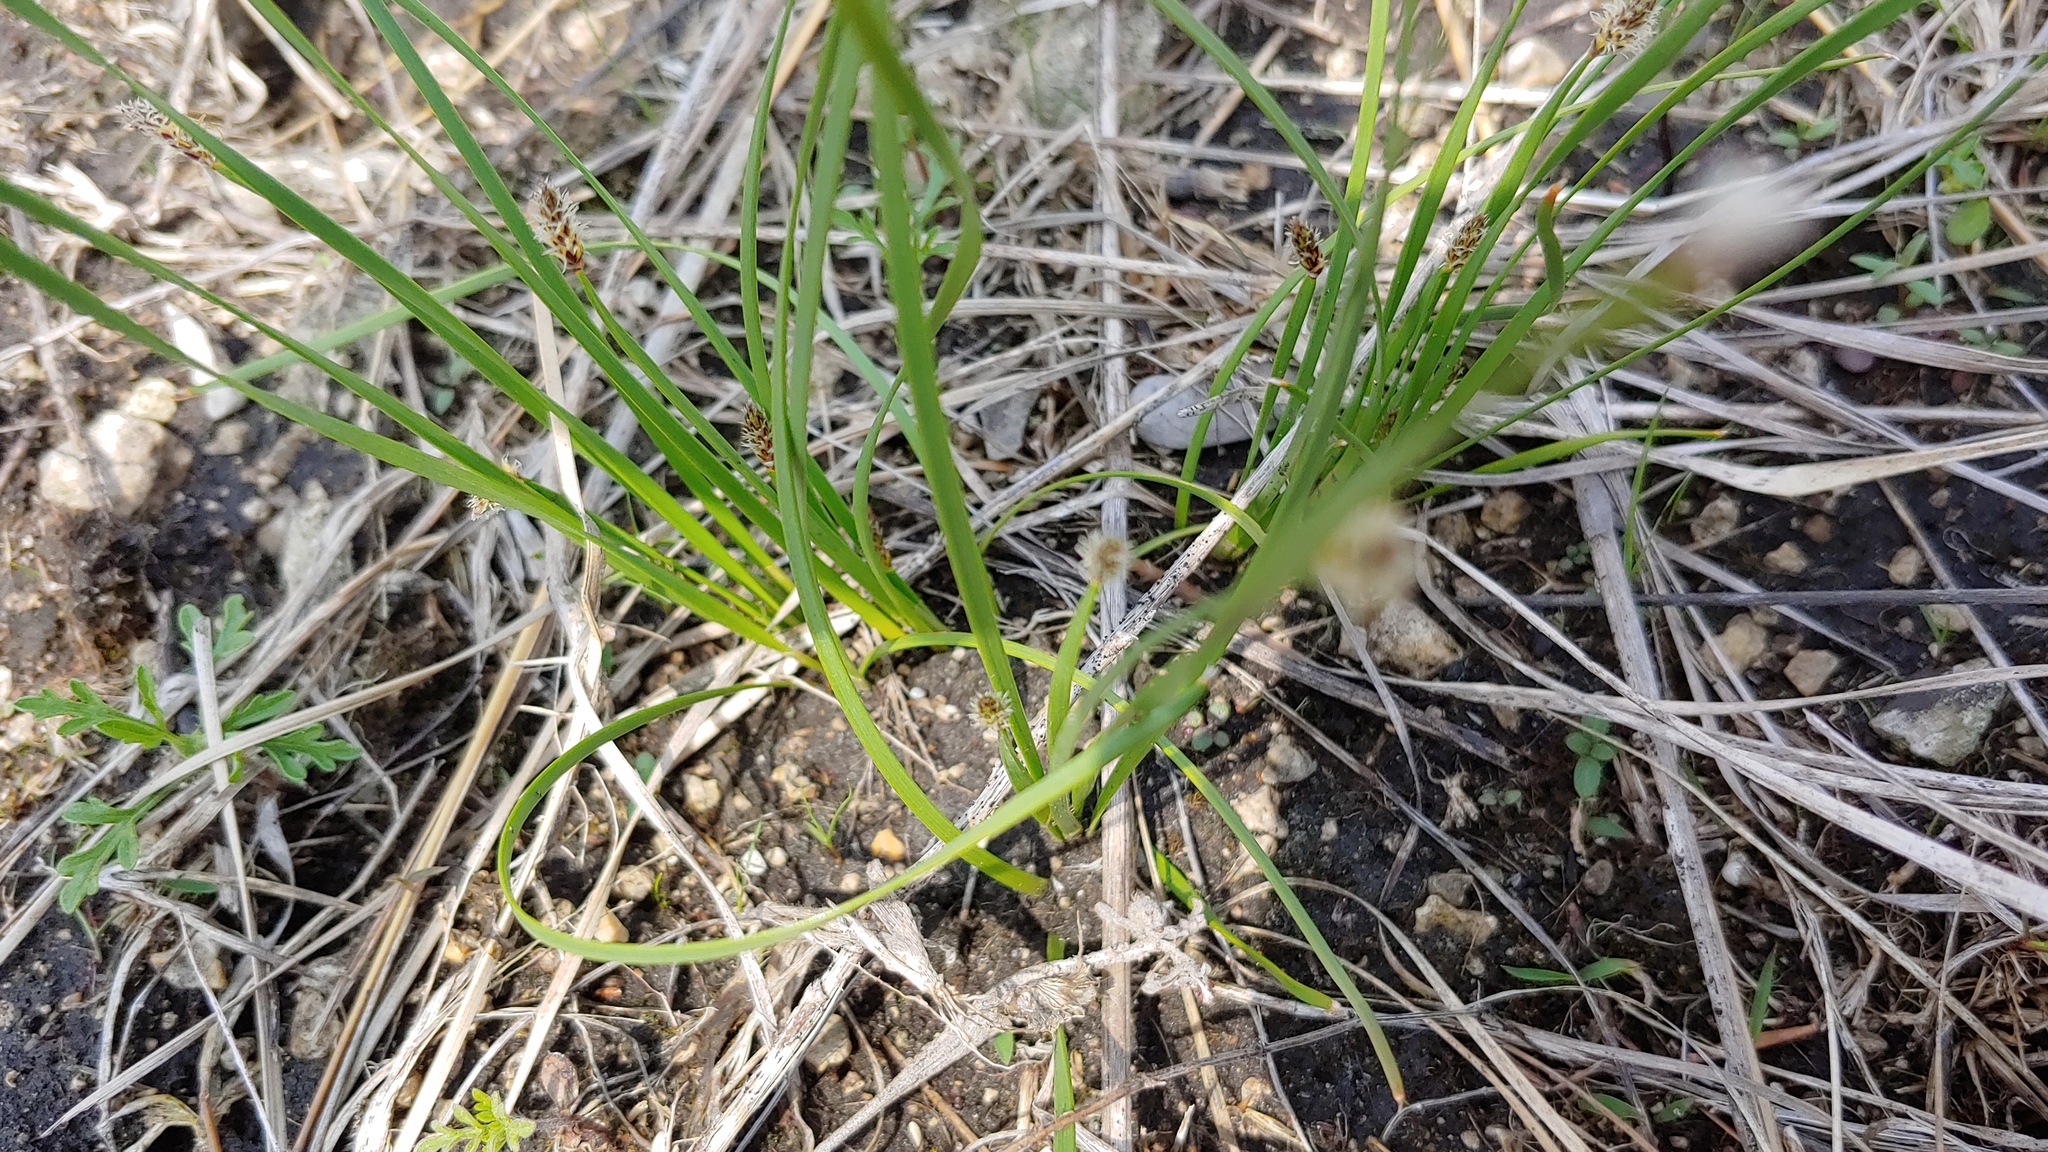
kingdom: Plantae
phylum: Tracheophyta
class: Liliopsida
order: Poales
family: Cyperaceae
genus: Eleocharis
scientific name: Eleocharis compressa
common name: Flat-stem spike-rush
